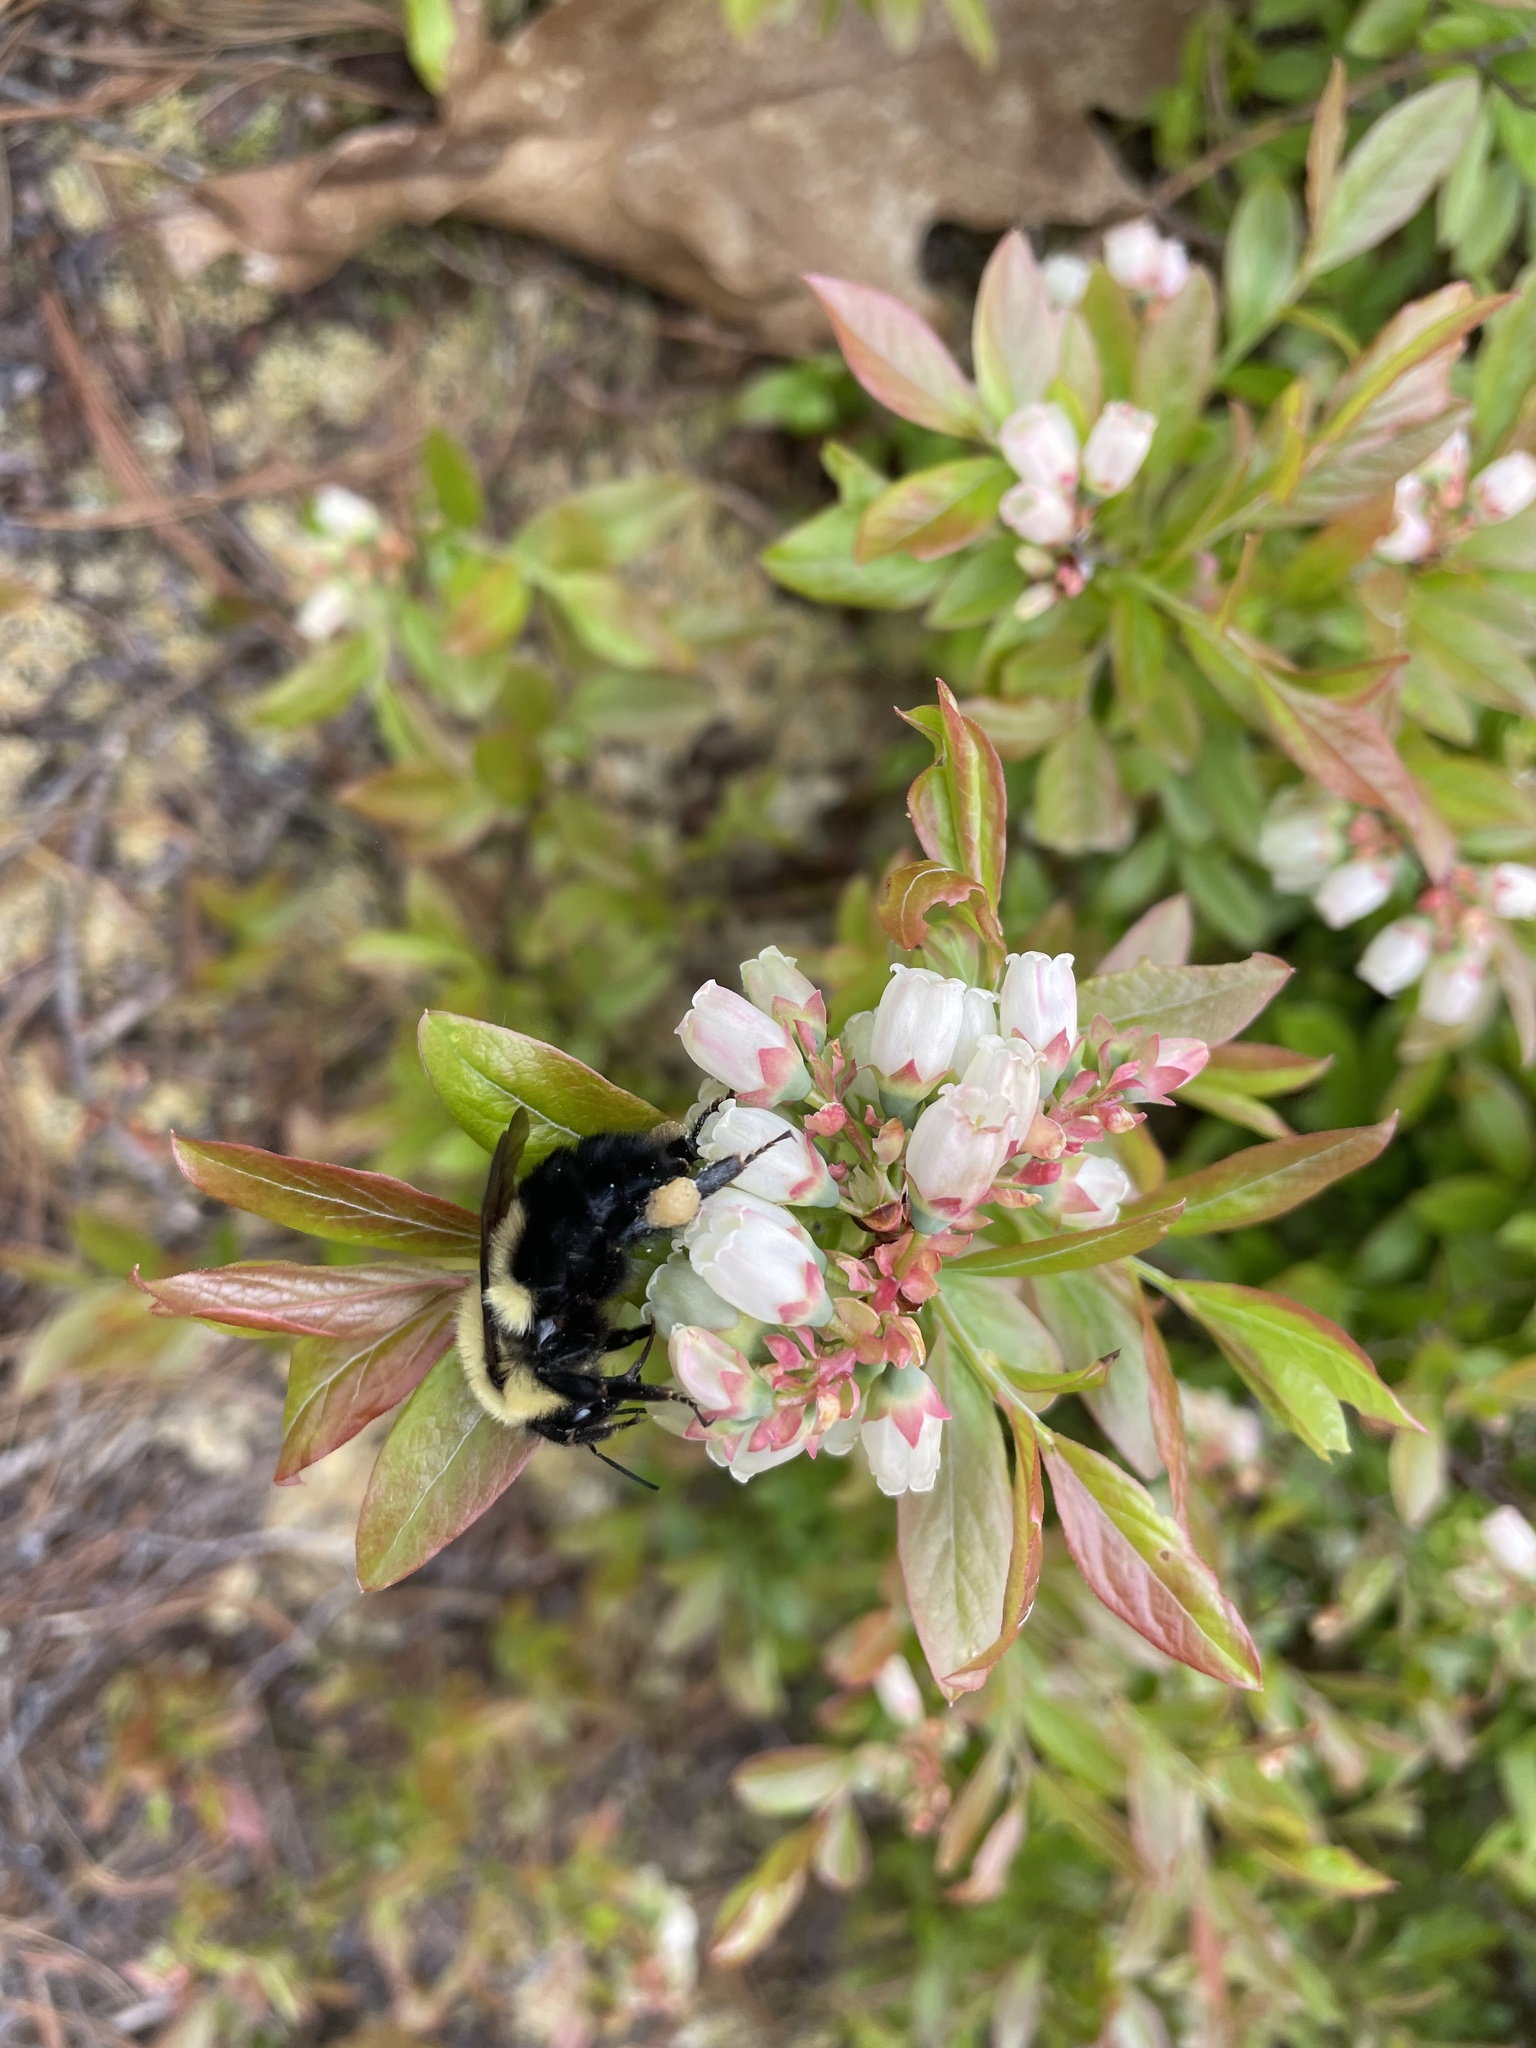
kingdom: Animalia
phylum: Arthropoda
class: Insecta
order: Hymenoptera
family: Apidae
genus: Bombus
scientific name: Bombus bimaculatus
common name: Two-spotted bumble bee
